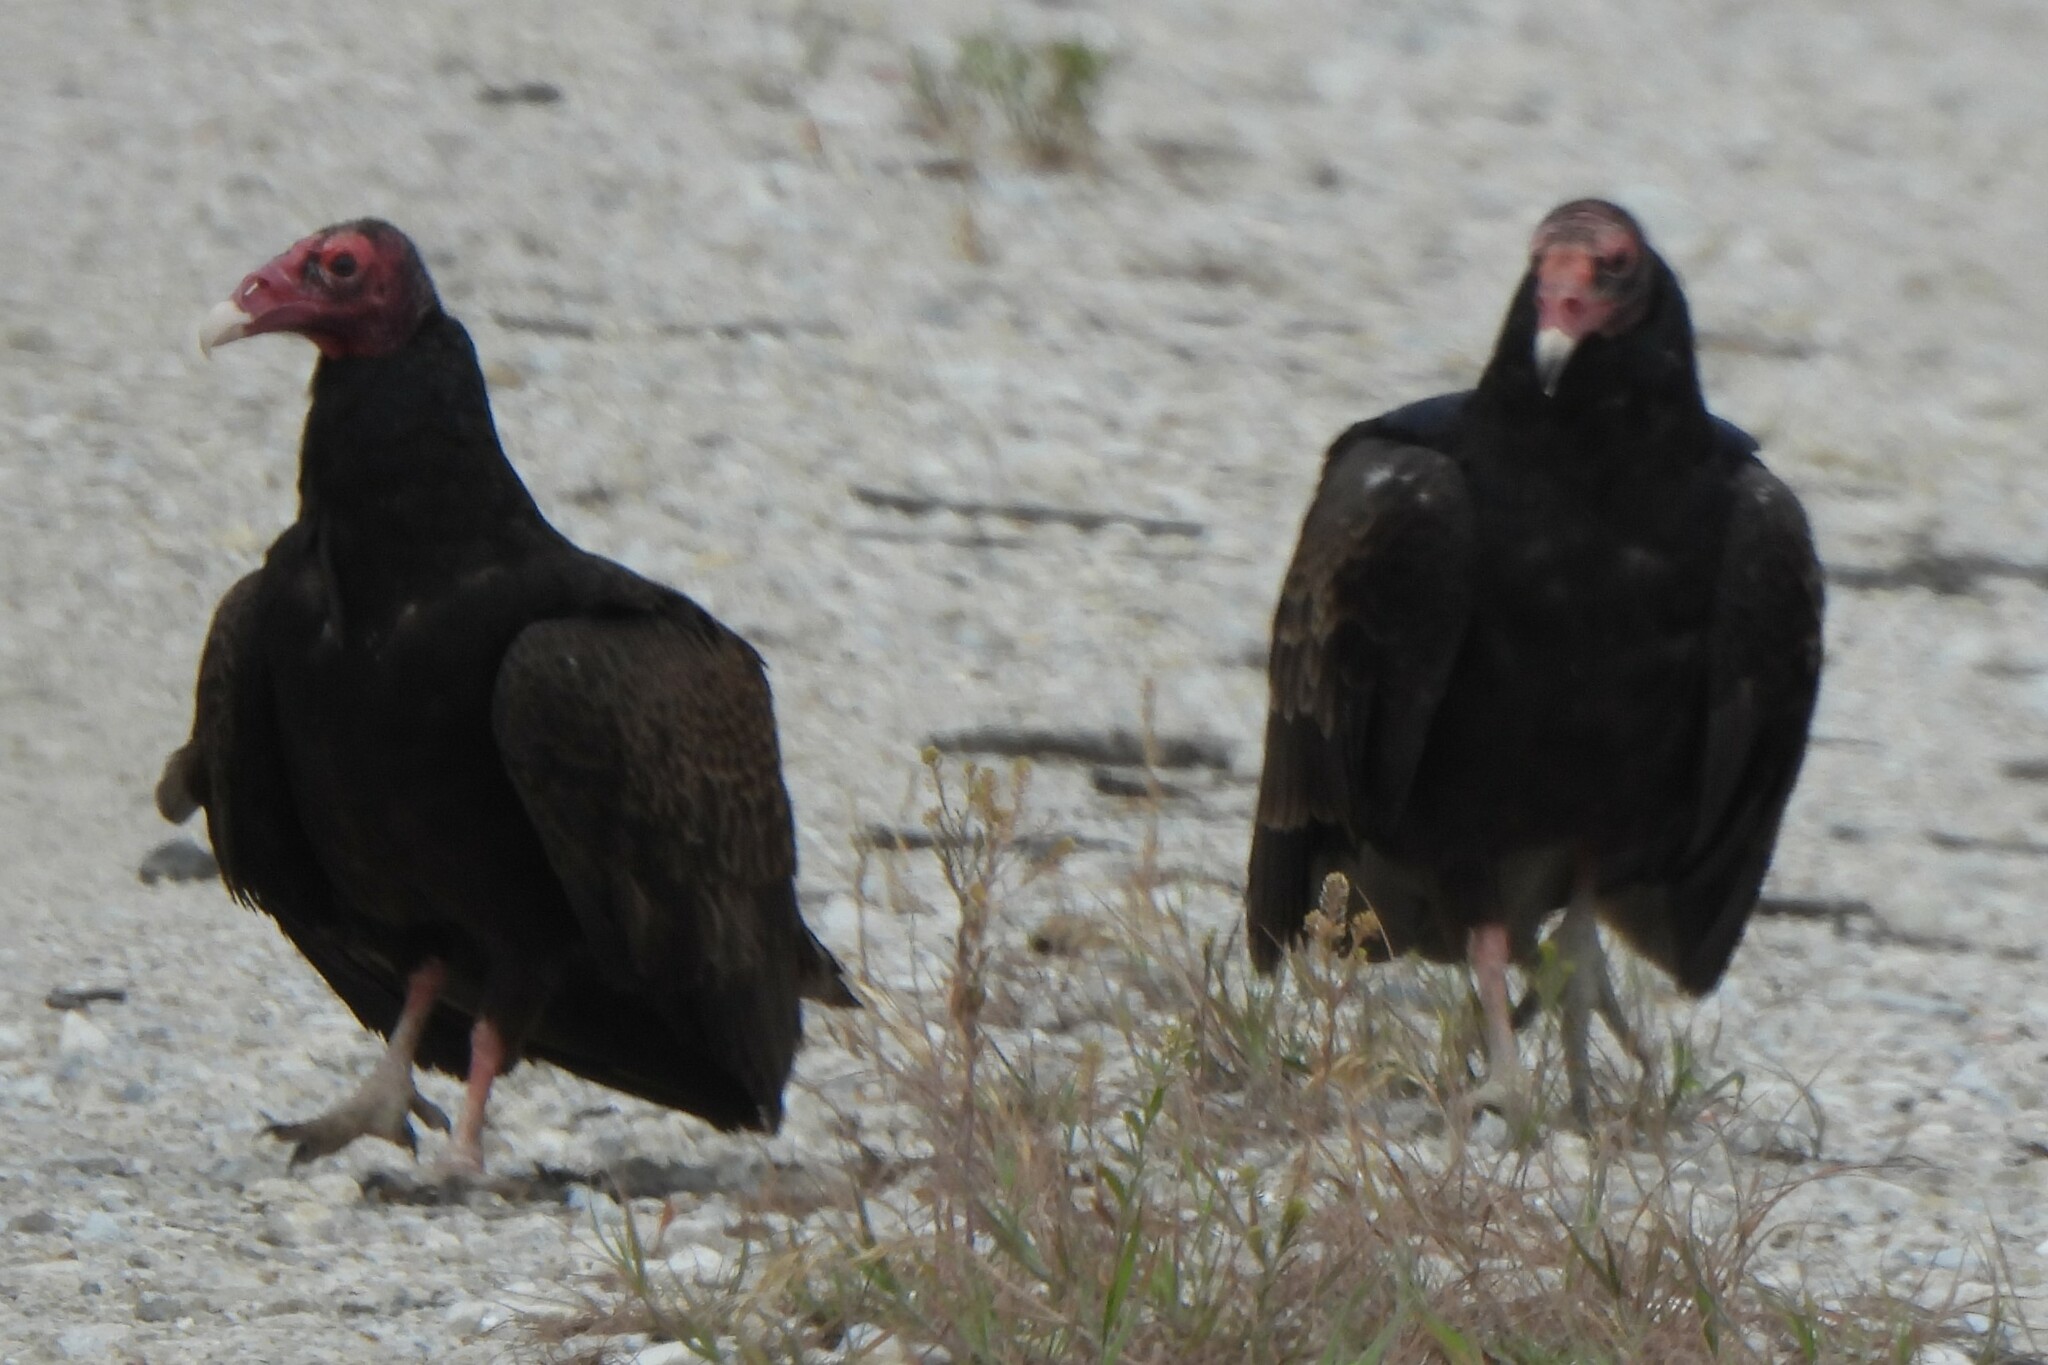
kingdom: Animalia
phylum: Chordata
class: Aves
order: Accipitriformes
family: Cathartidae
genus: Cathartes
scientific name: Cathartes aura
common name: Turkey vulture
